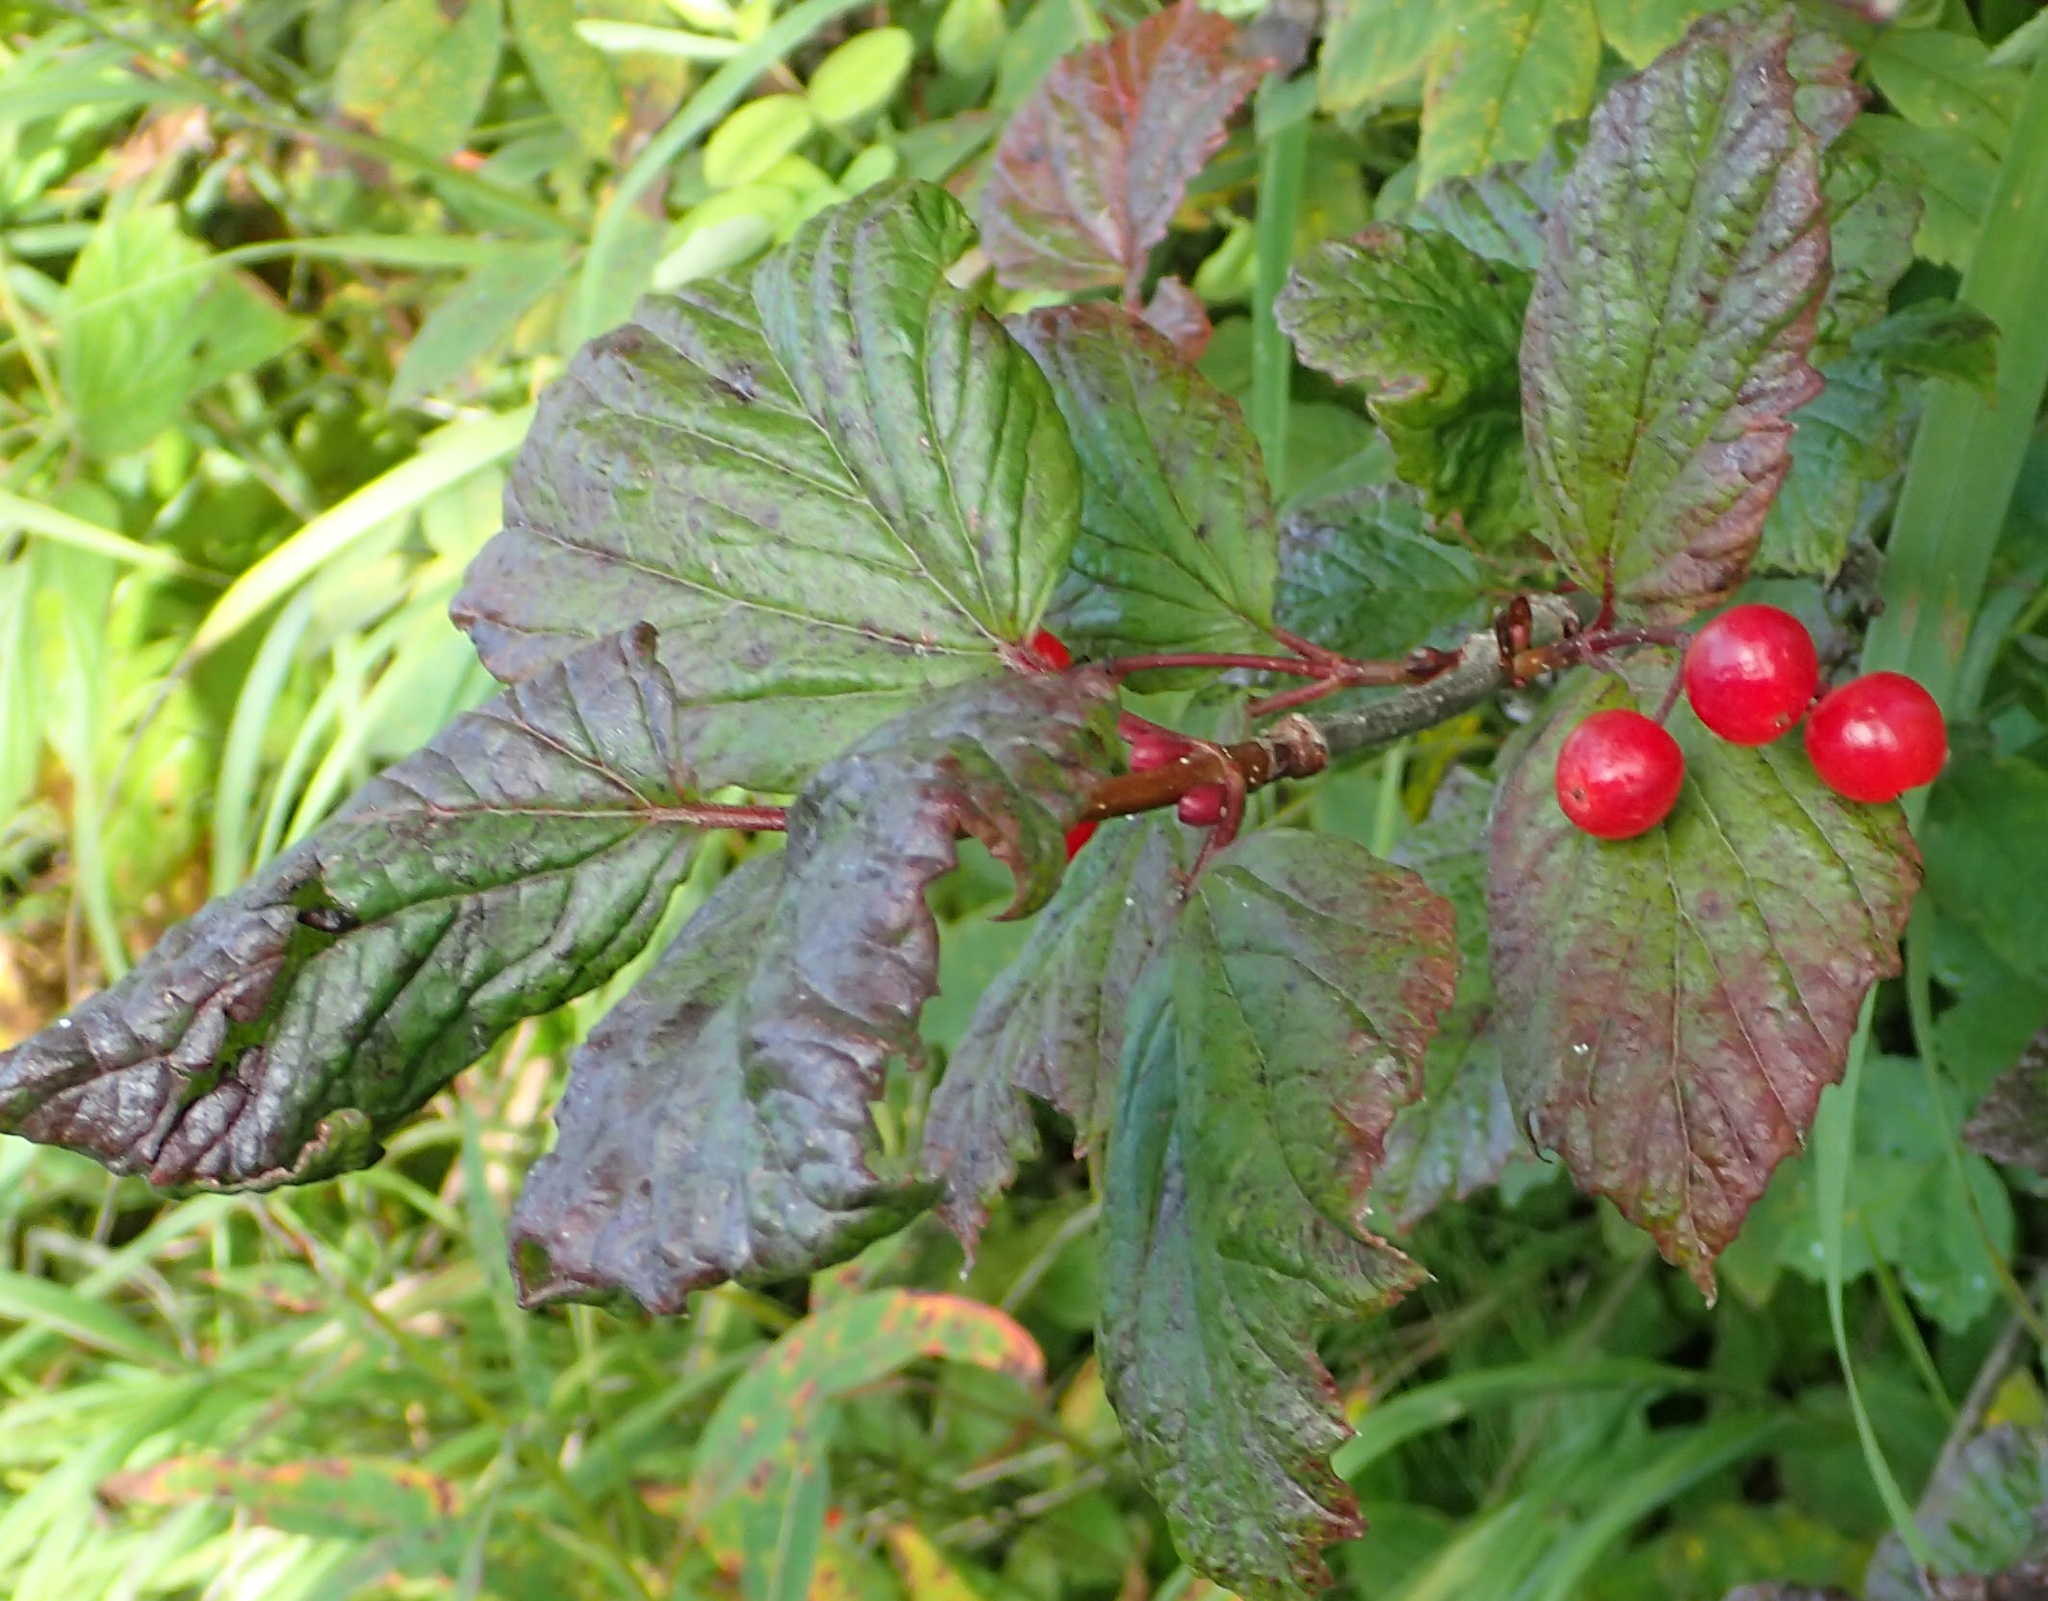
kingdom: Plantae
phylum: Tracheophyta
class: Magnoliopsida
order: Dipsacales
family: Viburnaceae
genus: Viburnum
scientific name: Viburnum edule
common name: Mooseberry
